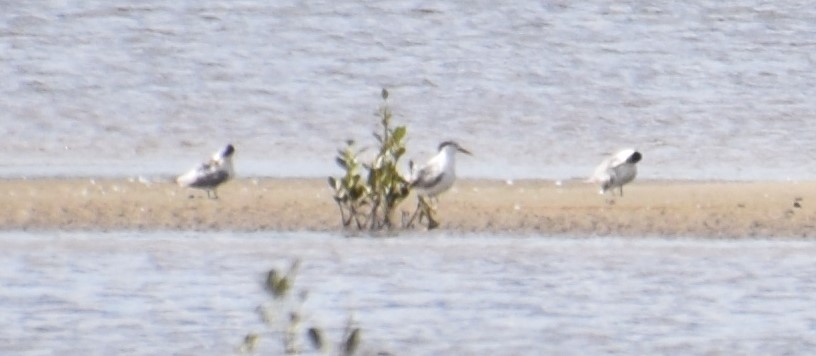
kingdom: Animalia
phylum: Chordata
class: Aves
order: Charadriiformes
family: Laridae
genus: Thalasseus
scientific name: Thalasseus bergii
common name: Greater crested tern
